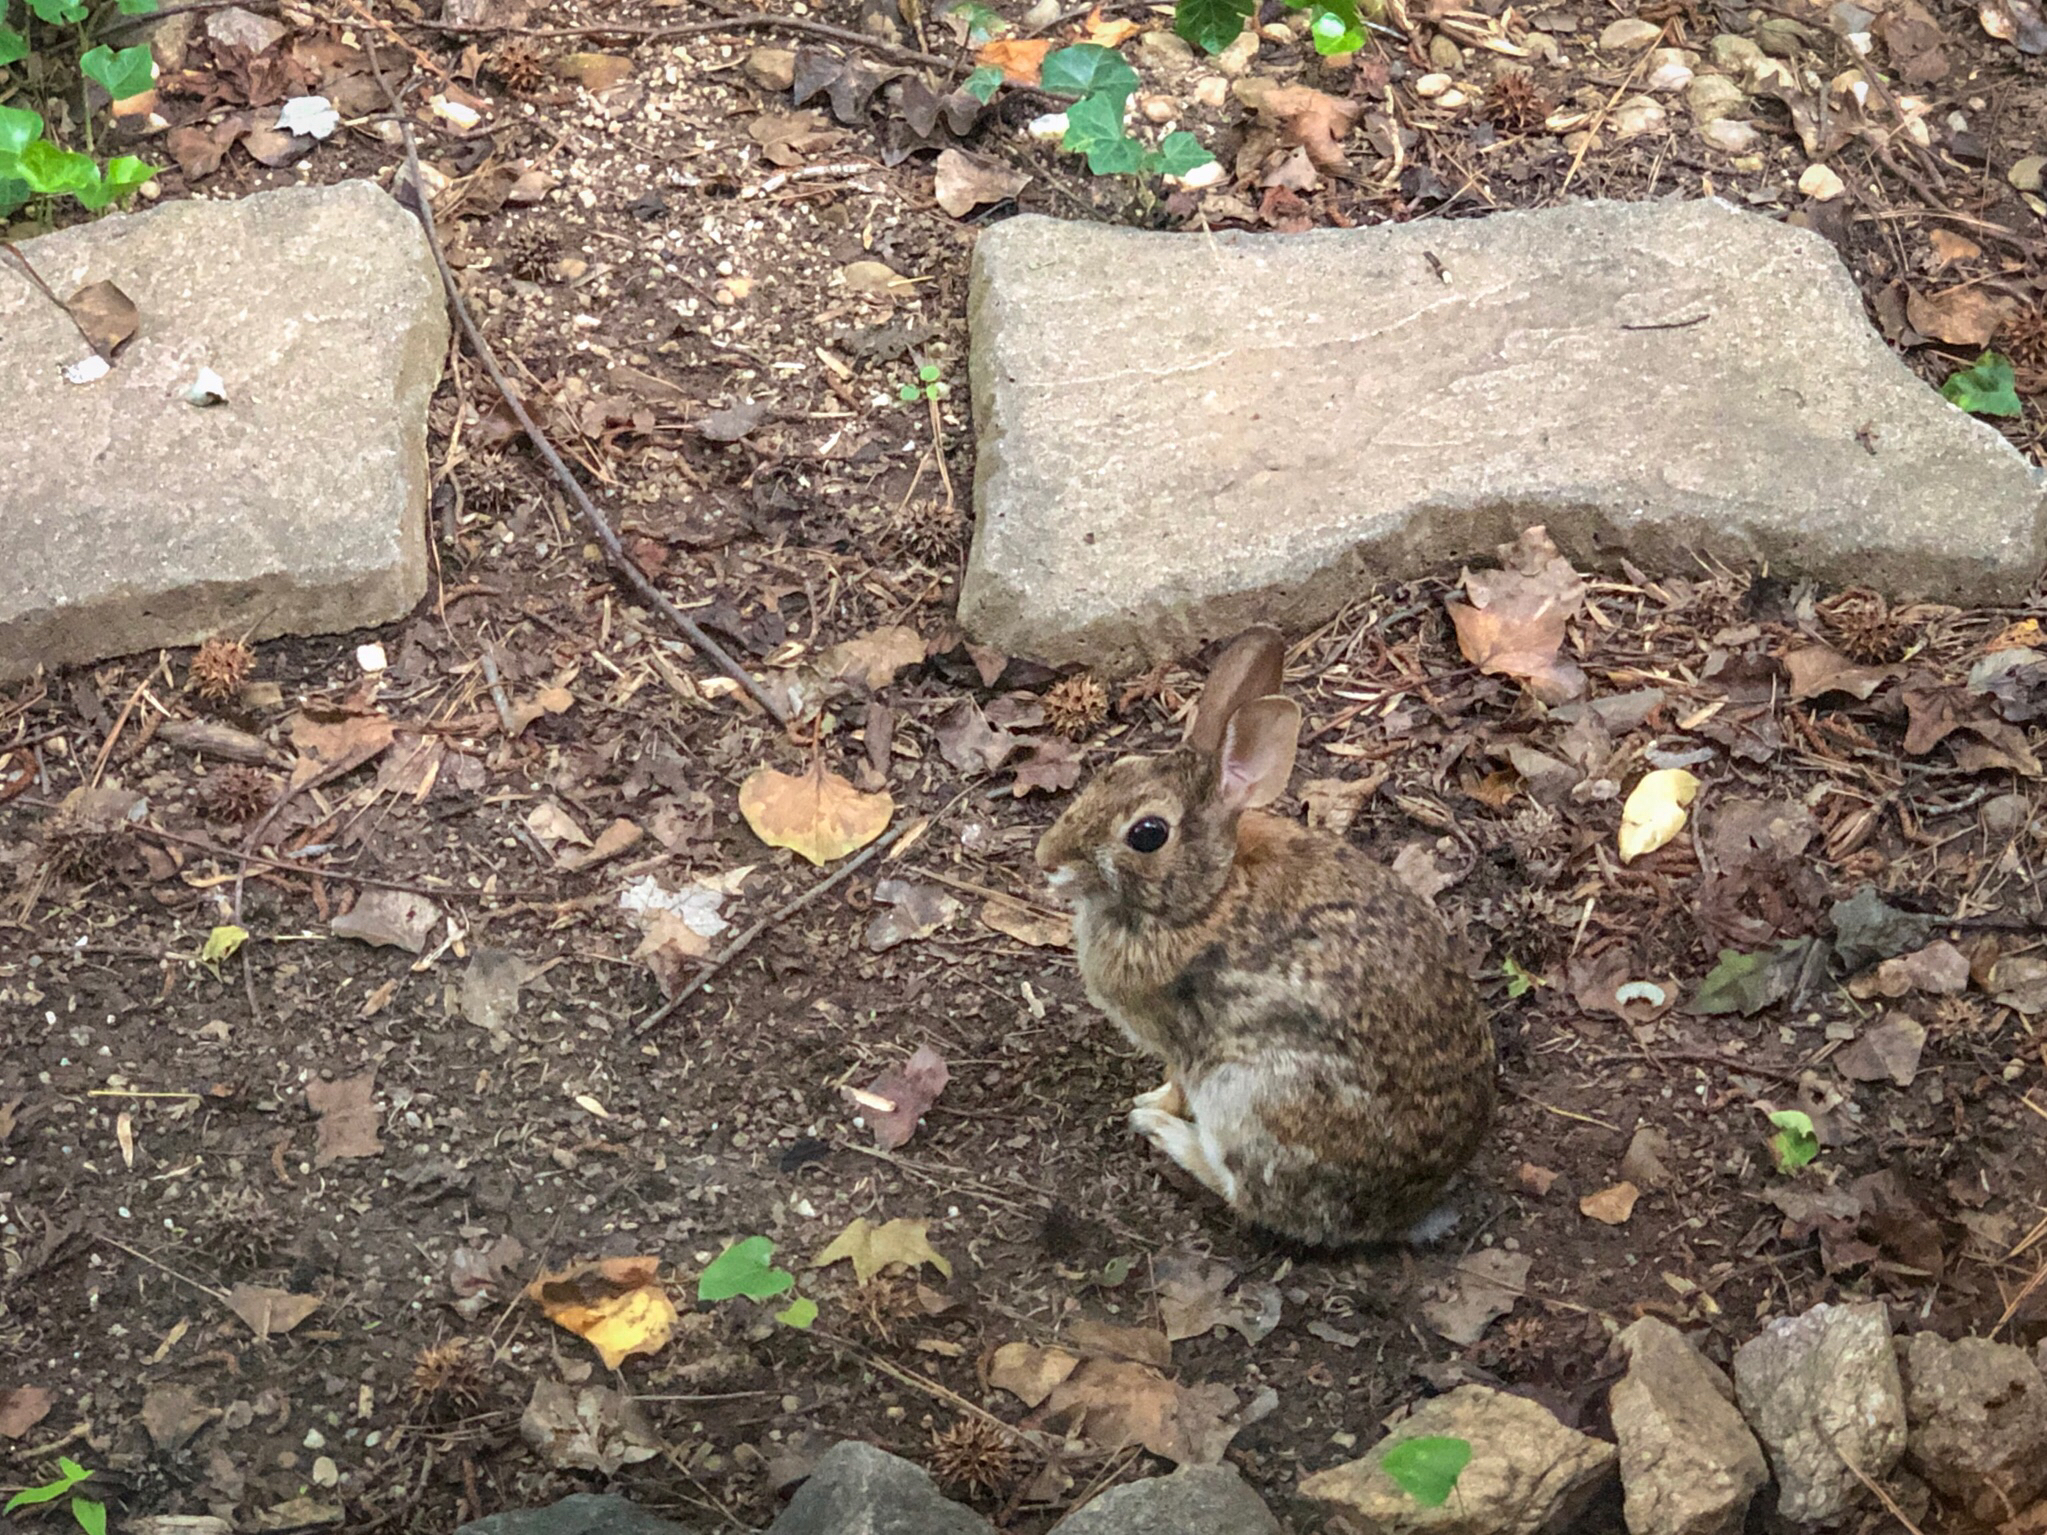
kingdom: Animalia
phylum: Chordata
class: Mammalia
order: Lagomorpha
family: Leporidae
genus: Sylvilagus
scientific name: Sylvilagus floridanus
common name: Eastern cottontail
